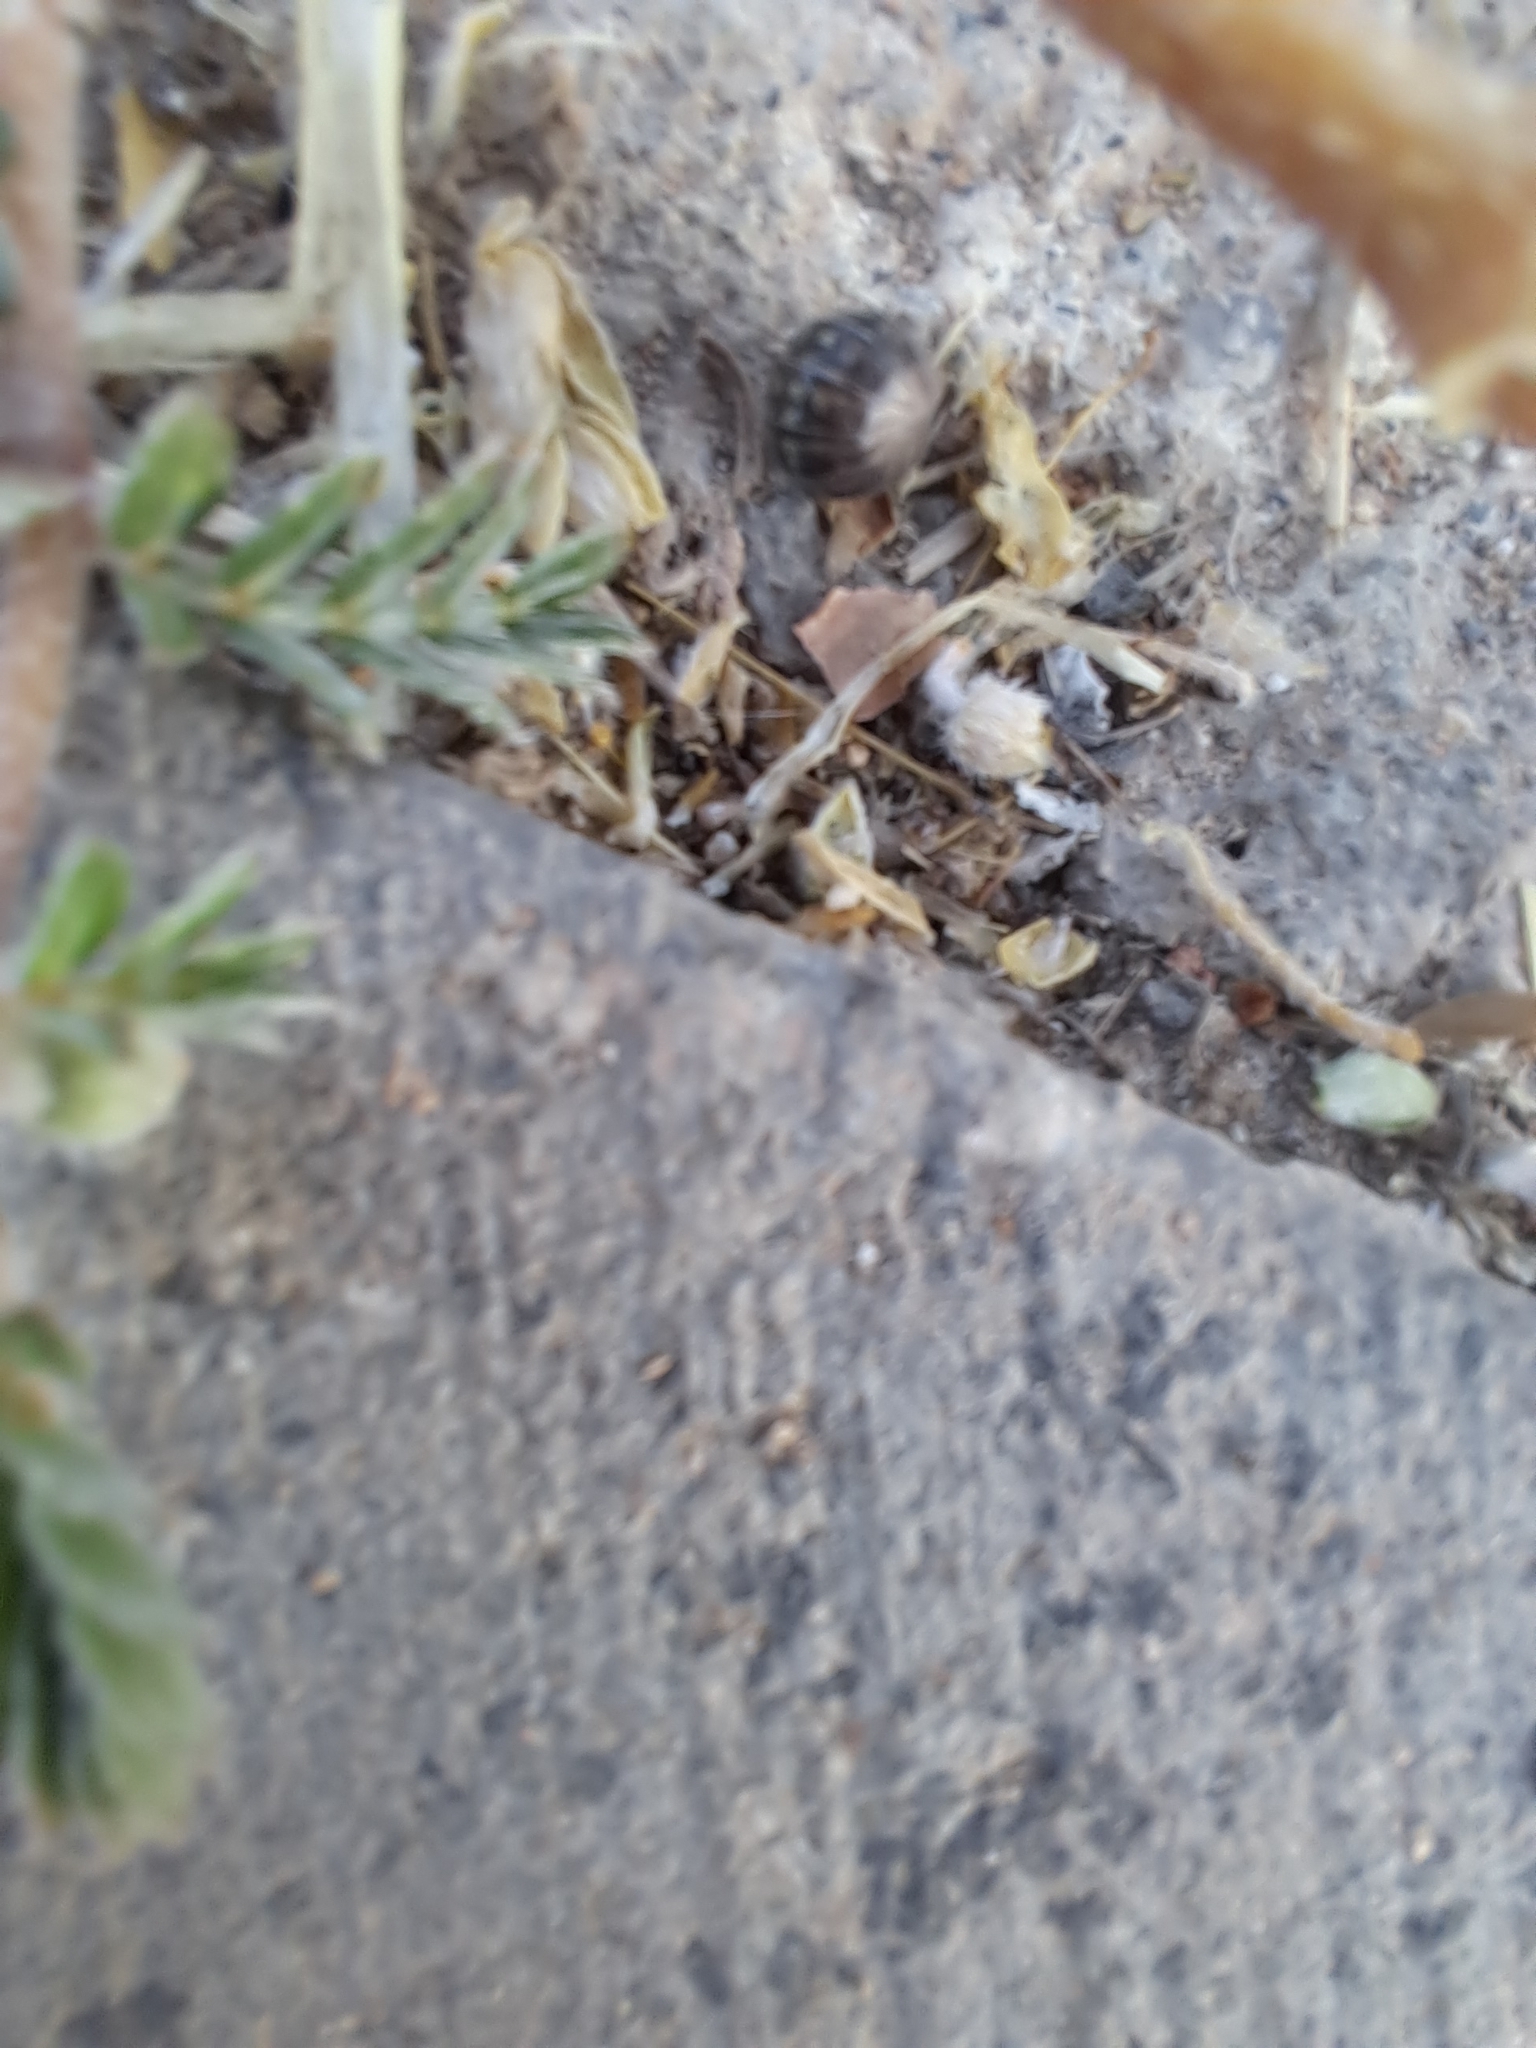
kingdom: Animalia
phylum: Arthropoda
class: Malacostraca
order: Isopoda
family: Armadillidiidae
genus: Armadillidium
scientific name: Armadillidium vulgare
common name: Common pill woodlouse
